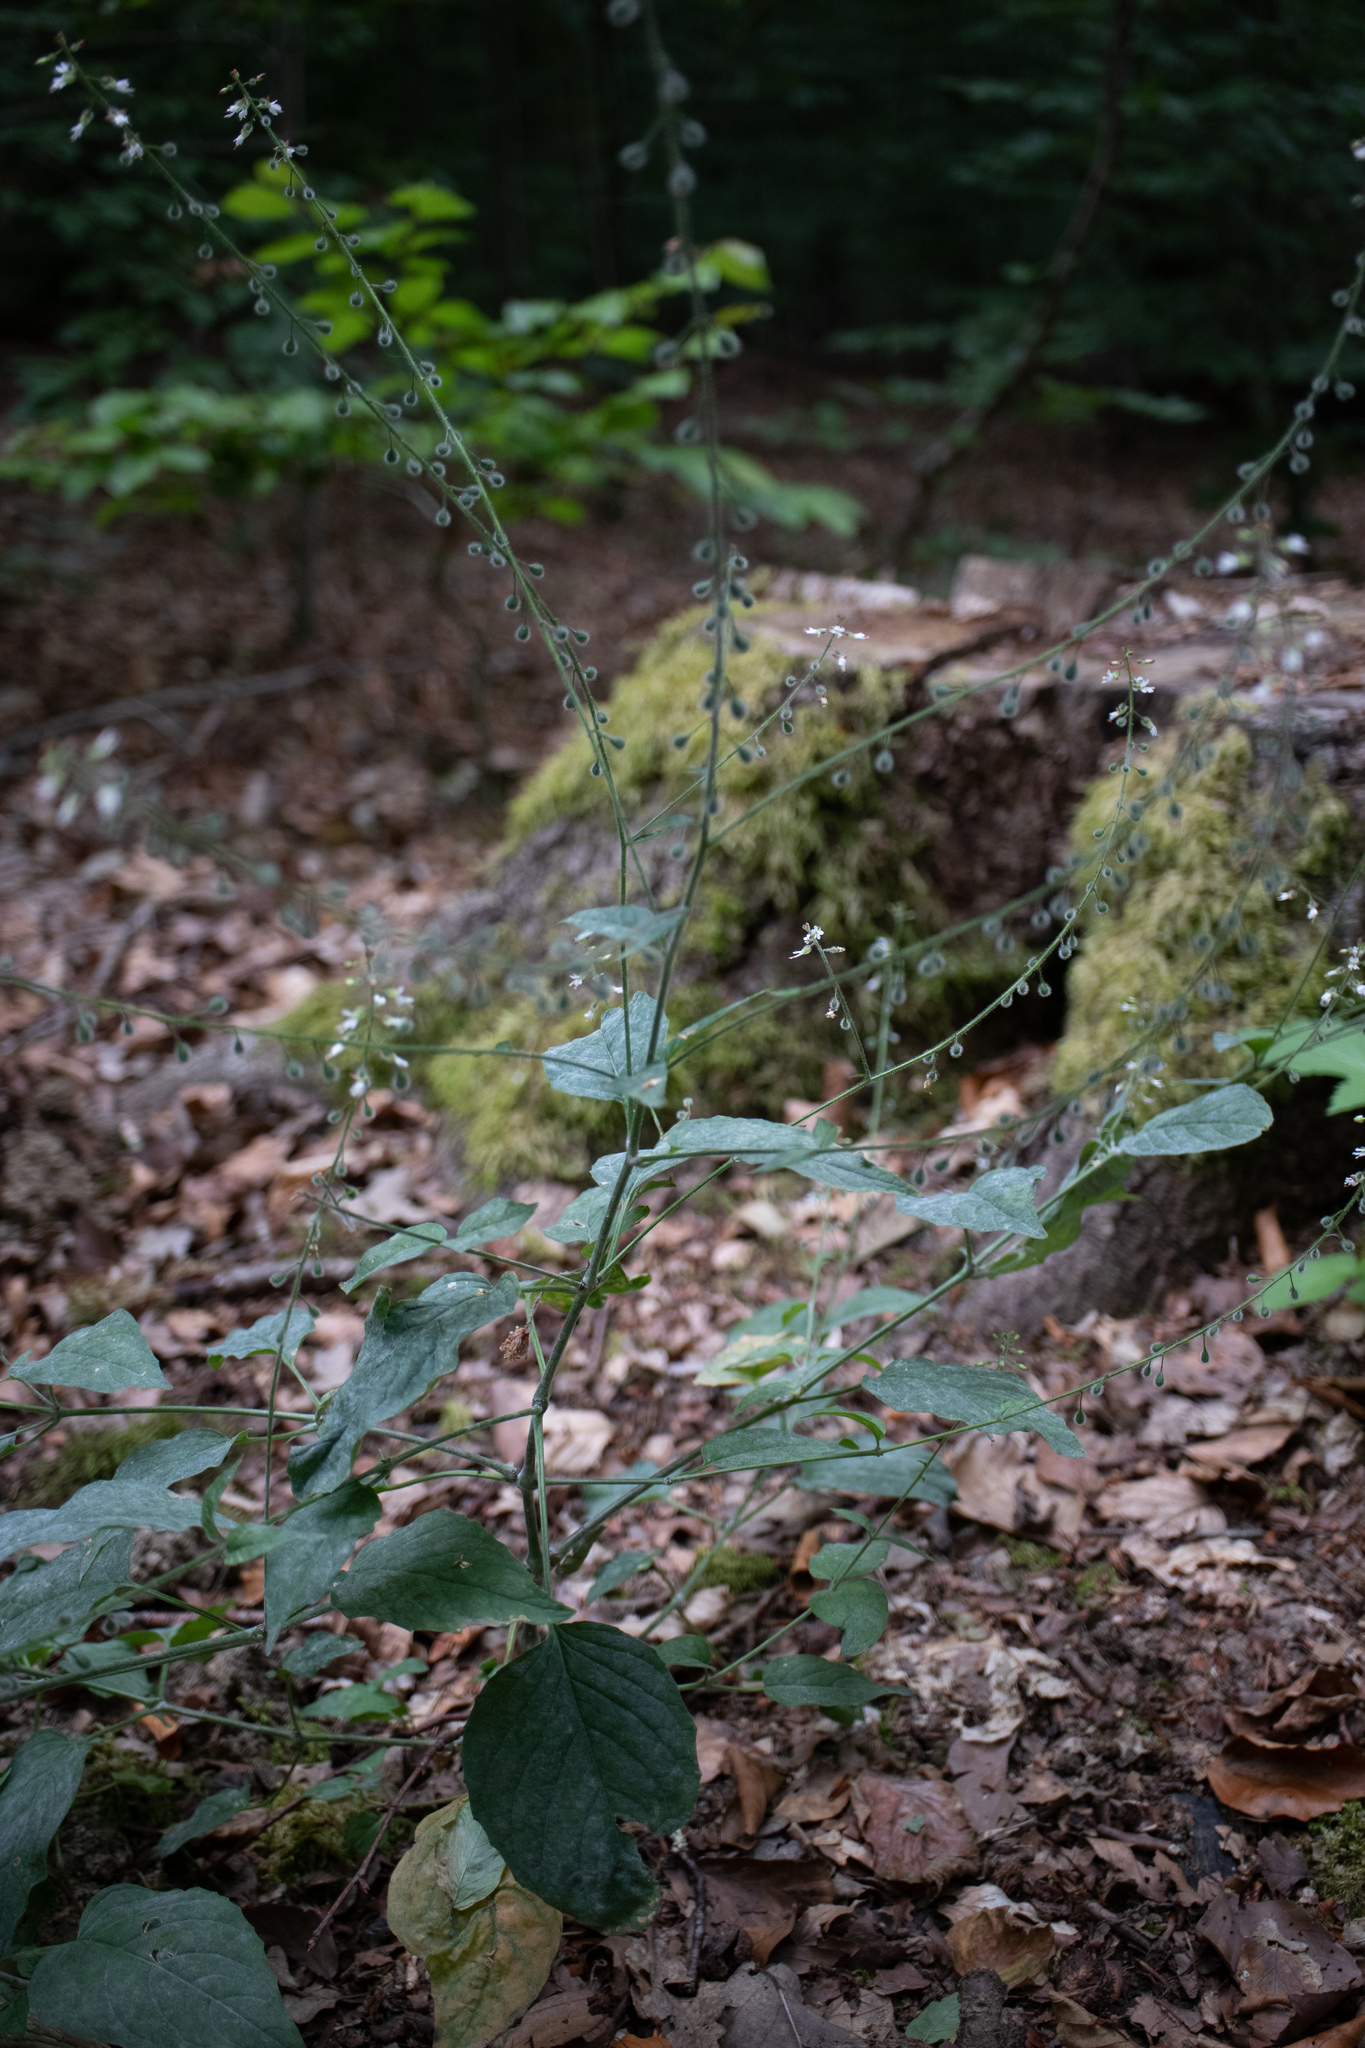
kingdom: Plantae
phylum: Tracheophyta
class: Magnoliopsida
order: Myrtales
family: Onagraceae
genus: Circaea
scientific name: Circaea lutetiana
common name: Enchanter's-nightshade
